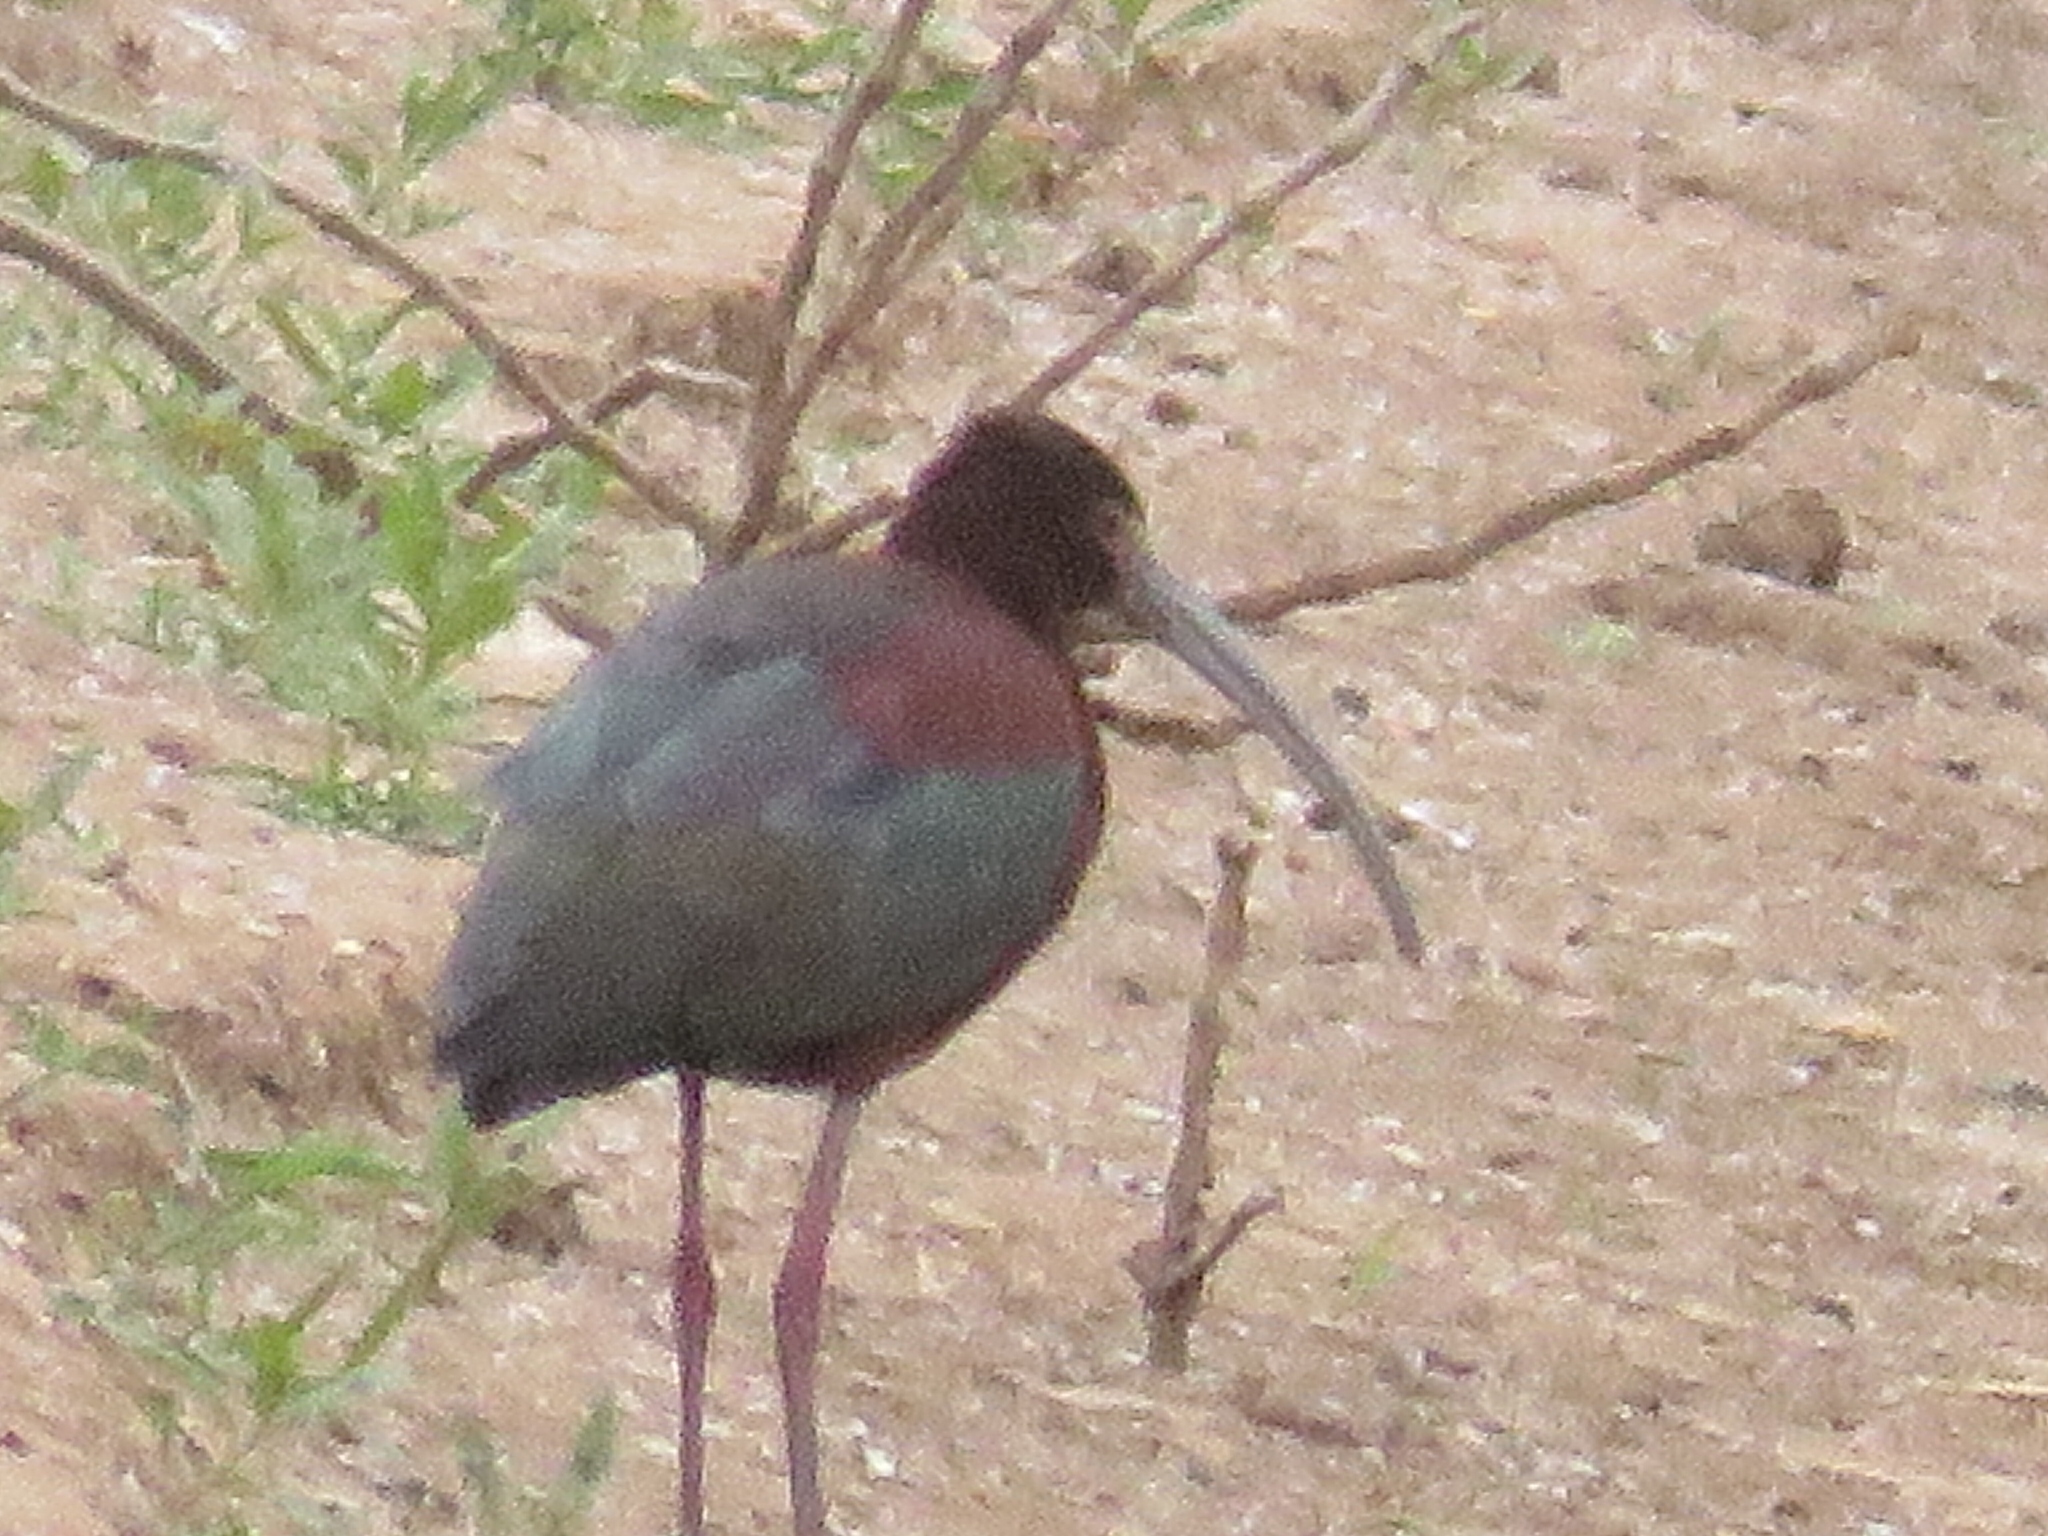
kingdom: Animalia
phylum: Chordata
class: Aves
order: Pelecaniformes
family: Threskiornithidae
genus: Plegadis
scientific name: Plegadis chihi
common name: White-faced ibis
